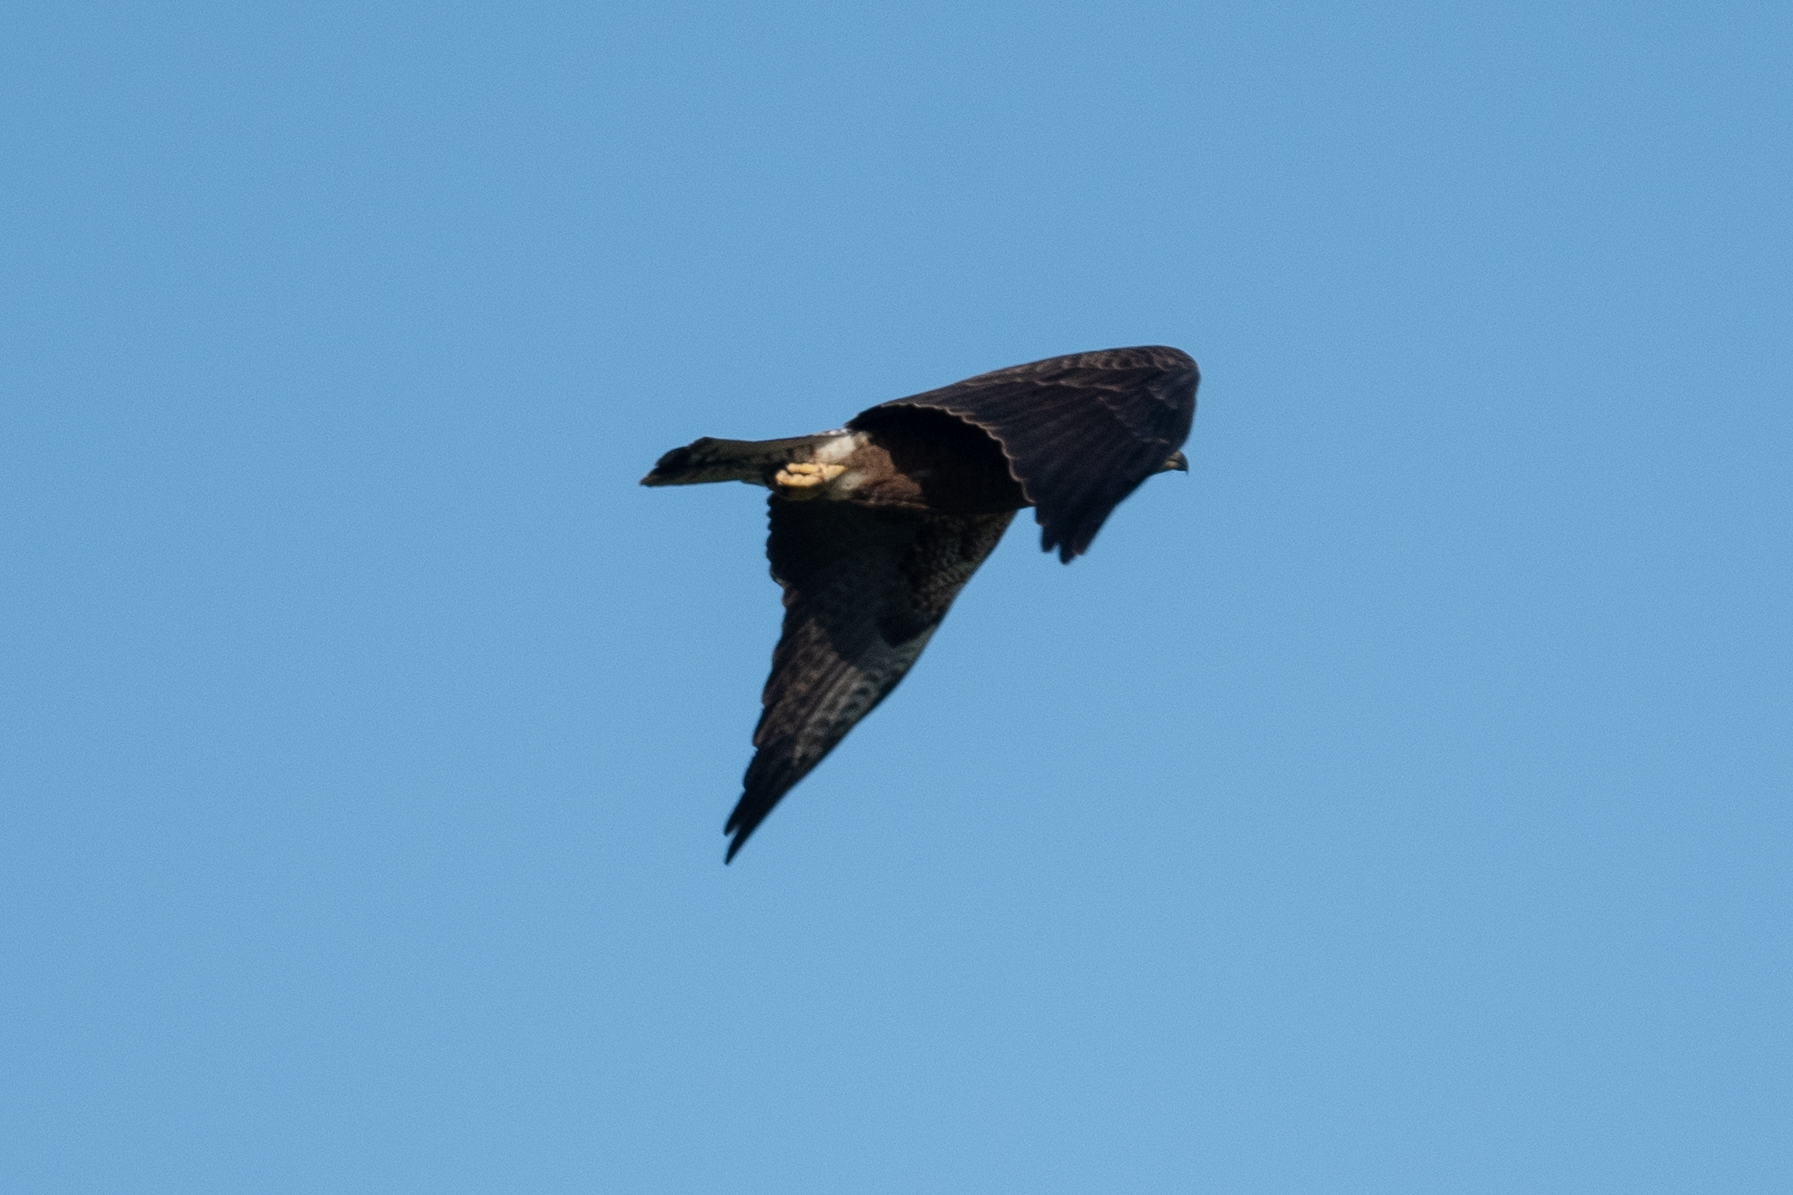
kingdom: Animalia
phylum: Chordata
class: Aves
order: Accipitriformes
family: Accipitridae
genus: Buteo
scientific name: Buteo swainsoni
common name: Swainson's hawk
